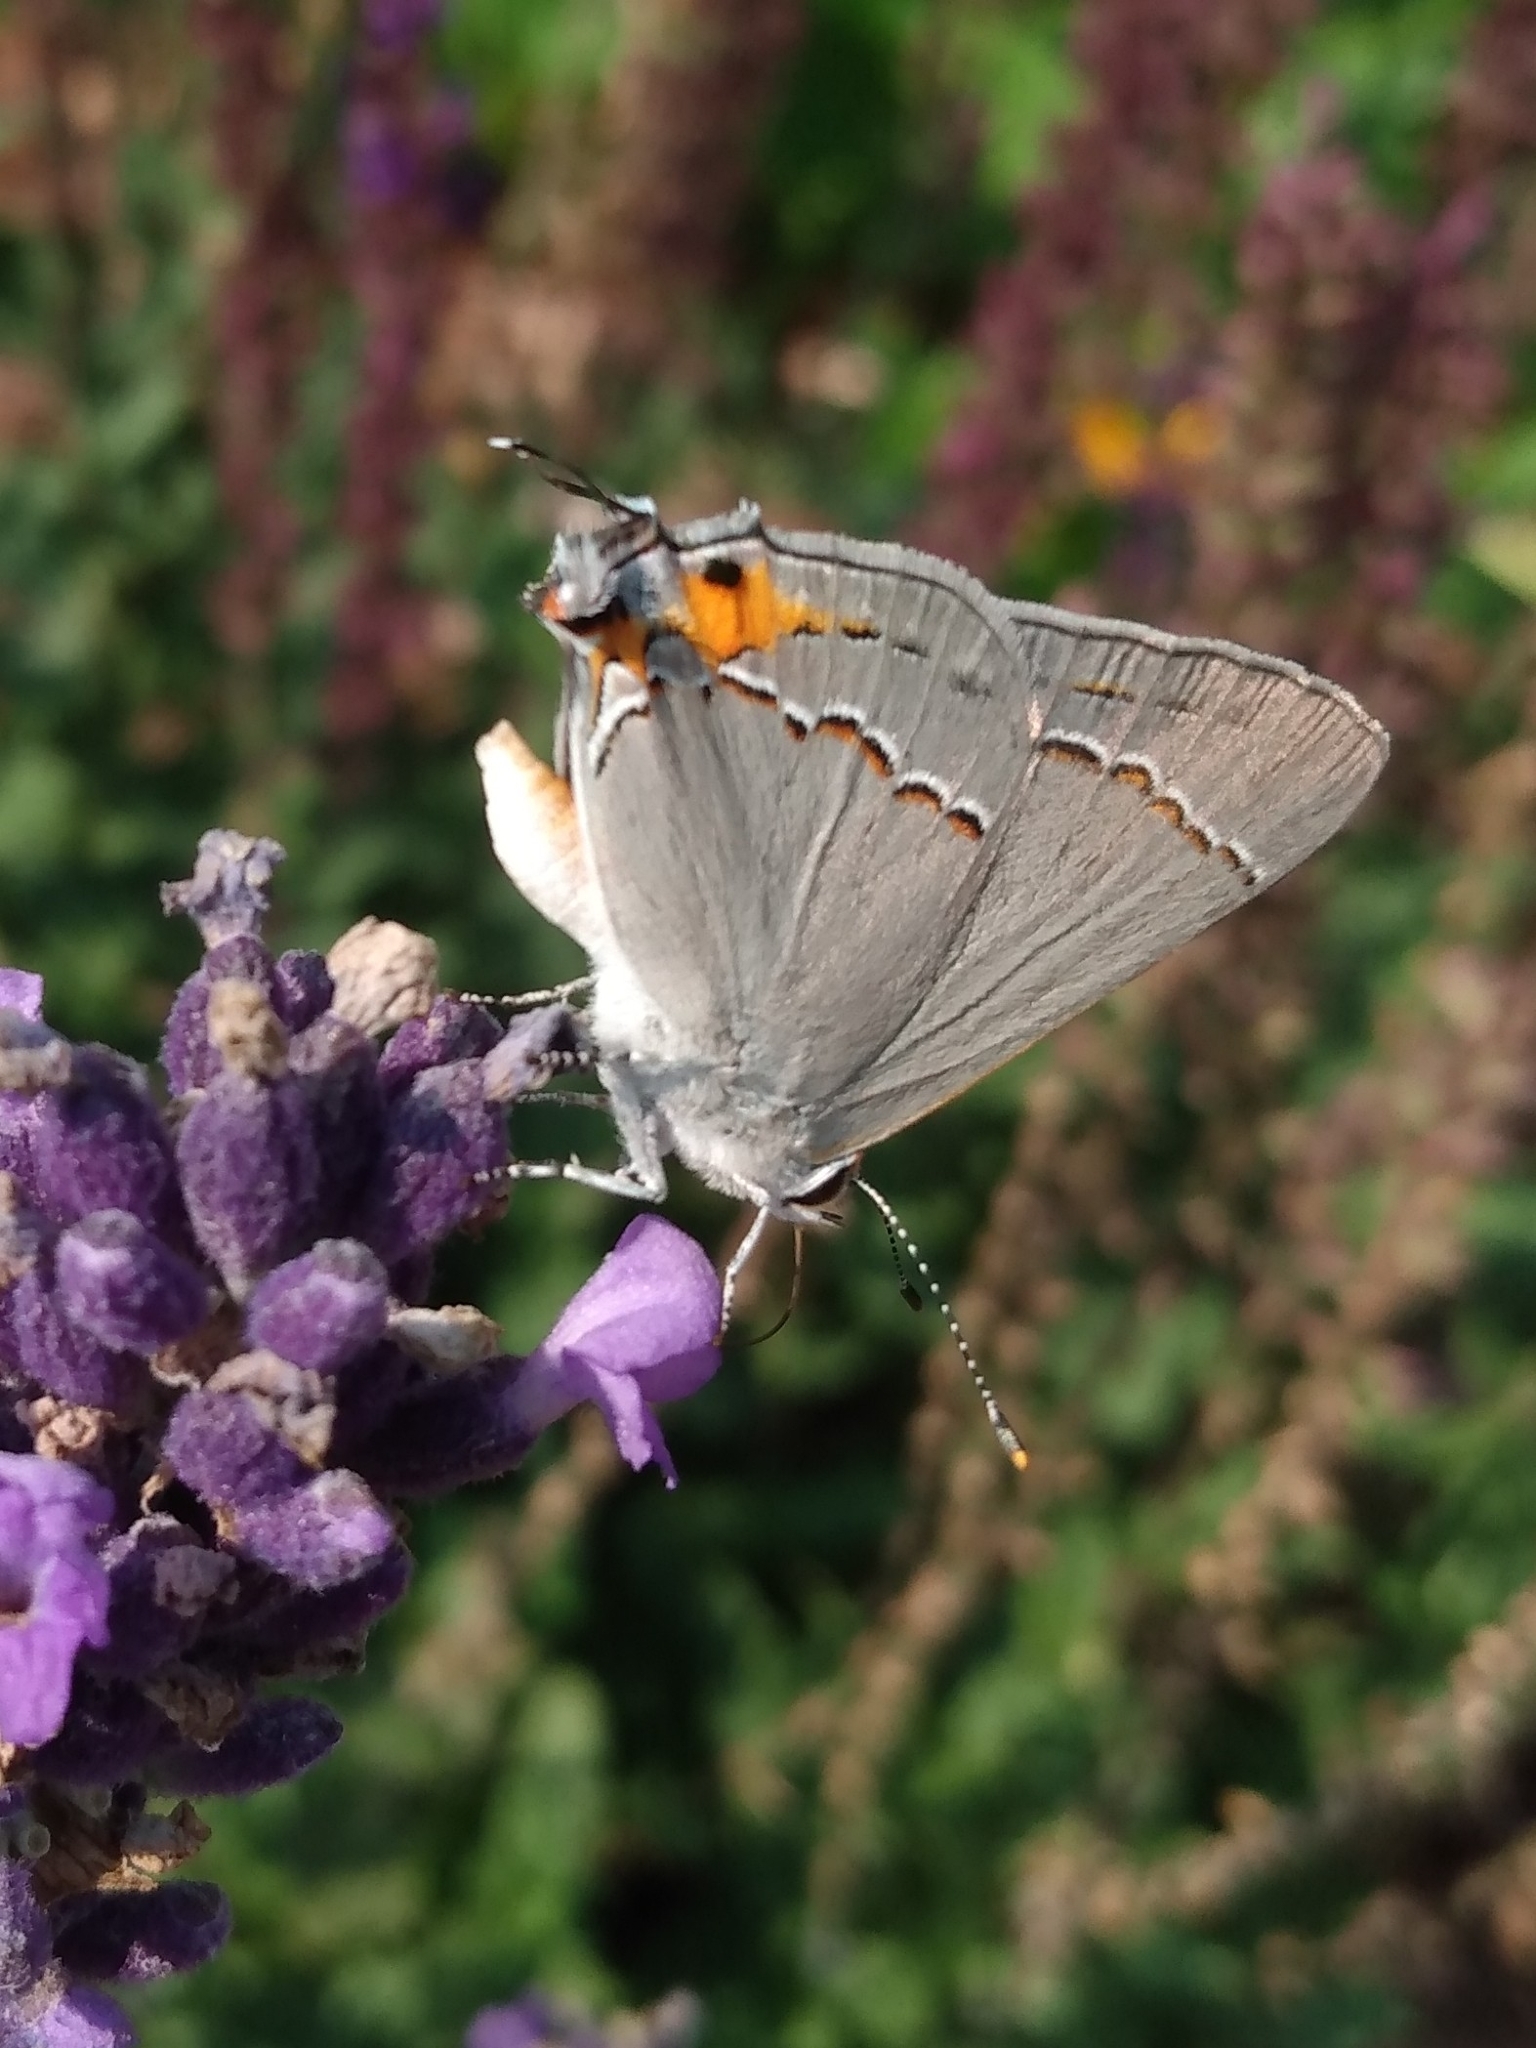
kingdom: Animalia
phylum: Arthropoda
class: Insecta
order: Lepidoptera
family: Lycaenidae
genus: Strymon
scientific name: Strymon melinus
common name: Gray hairstreak
